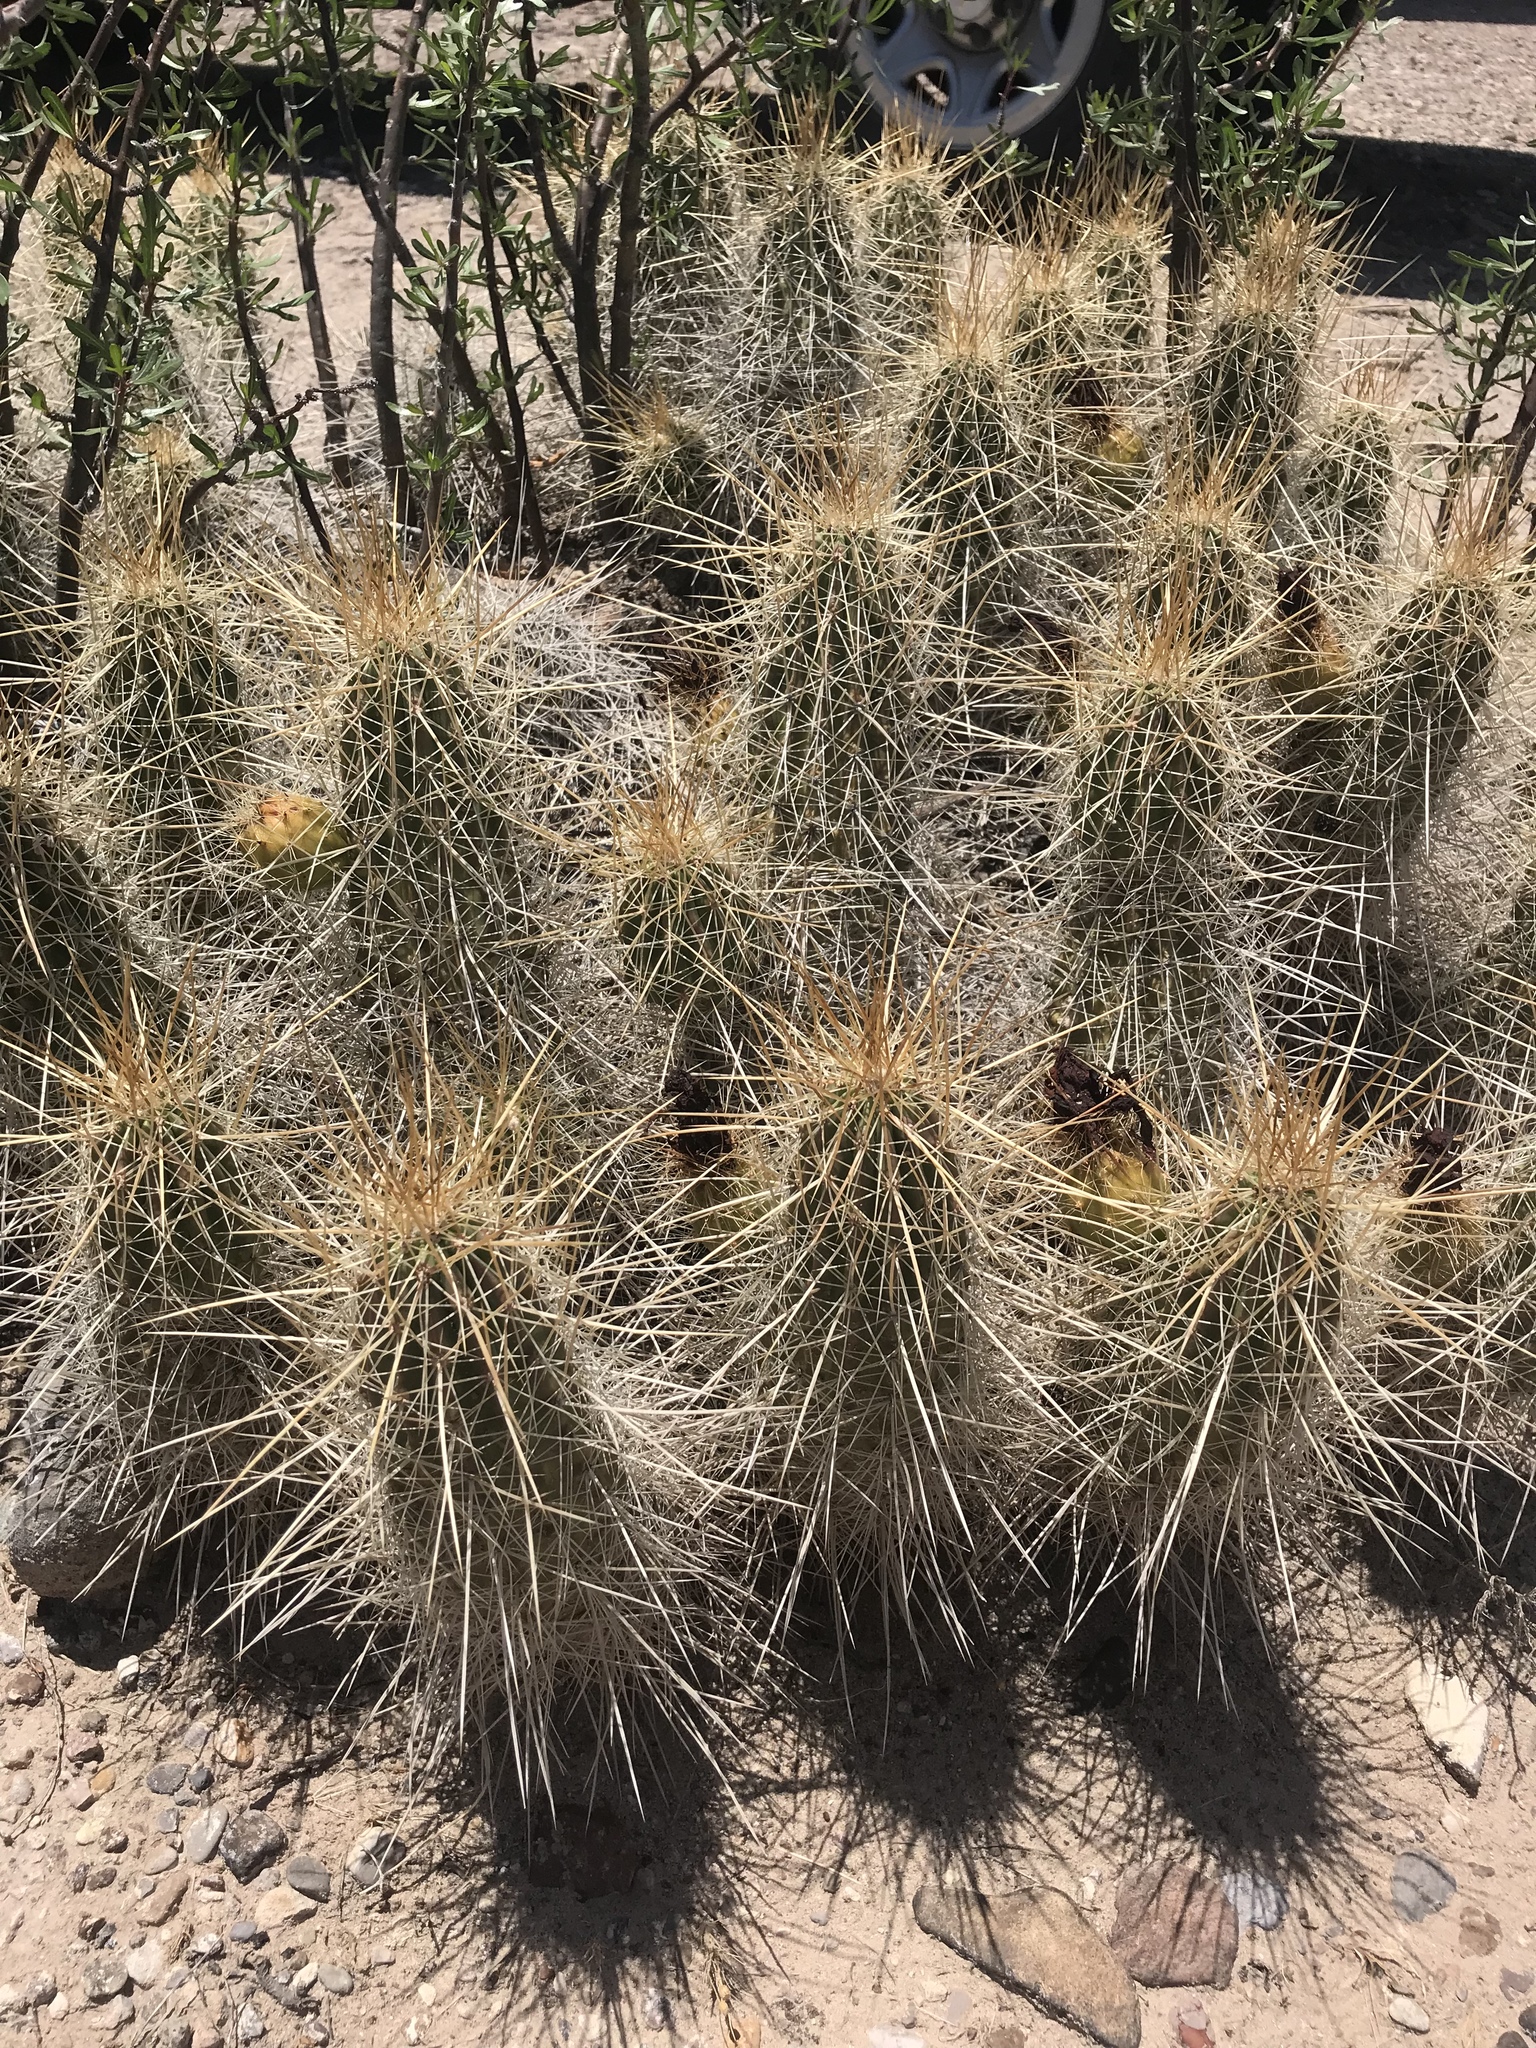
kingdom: Plantae
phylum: Tracheophyta
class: Magnoliopsida
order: Caryophyllales
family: Cactaceae
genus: Echinocereus
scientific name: Echinocereus stramineus
